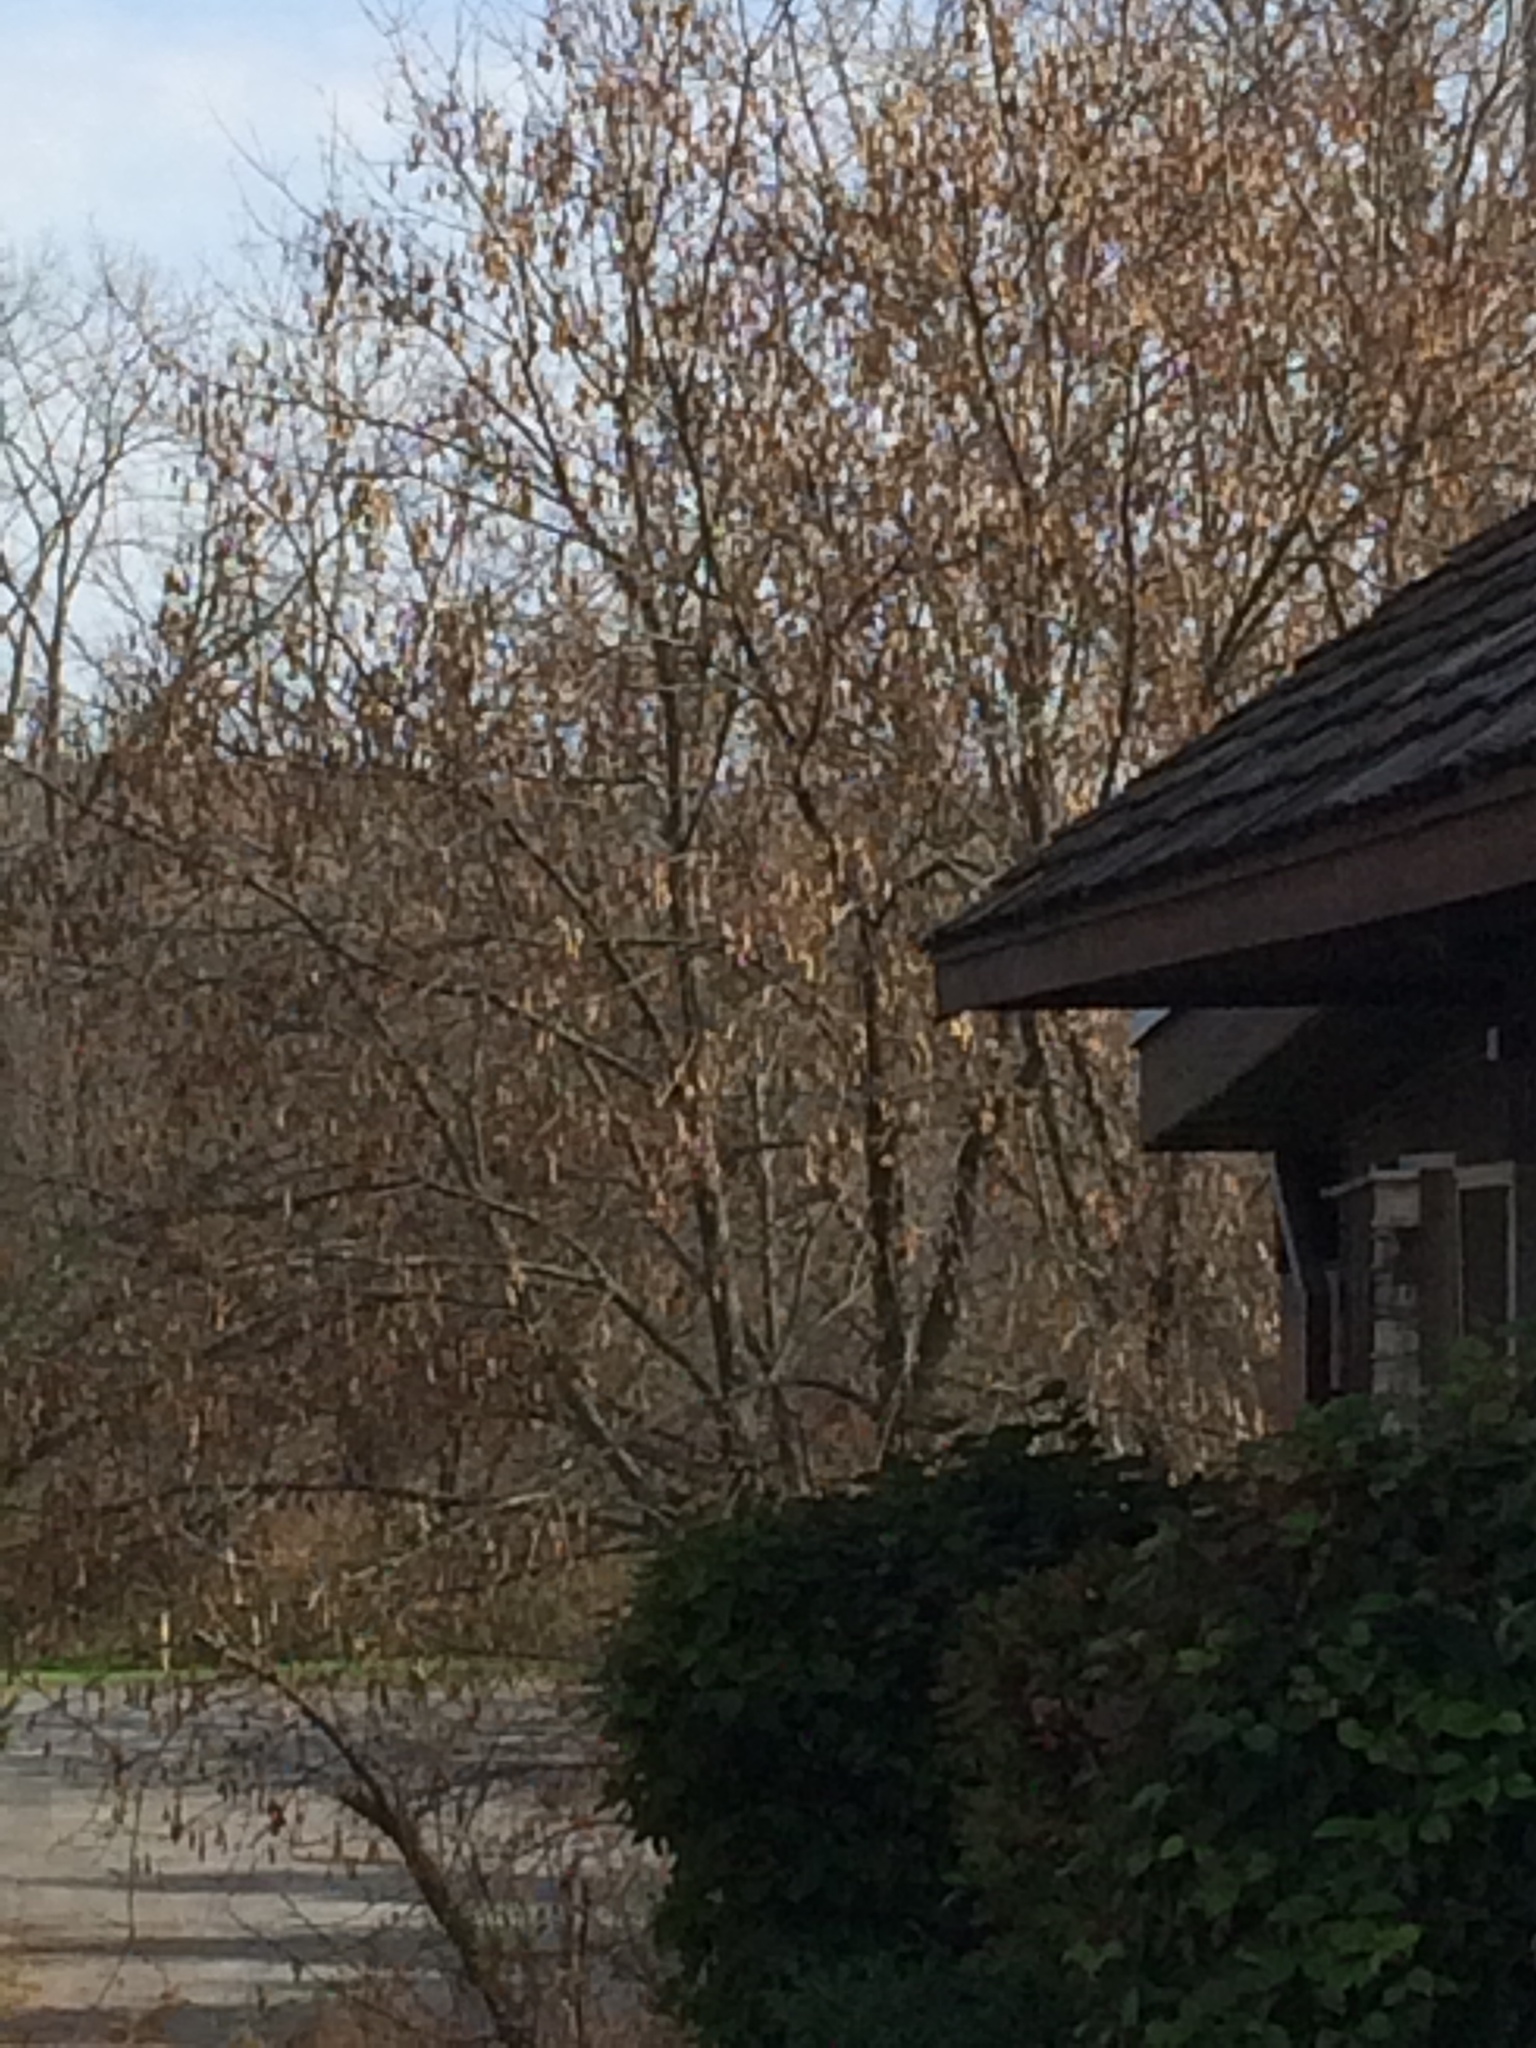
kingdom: Plantae
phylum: Tracheophyta
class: Magnoliopsida
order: Sapindales
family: Sapindaceae
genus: Acer
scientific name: Acer negundo
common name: Ashleaf maple
